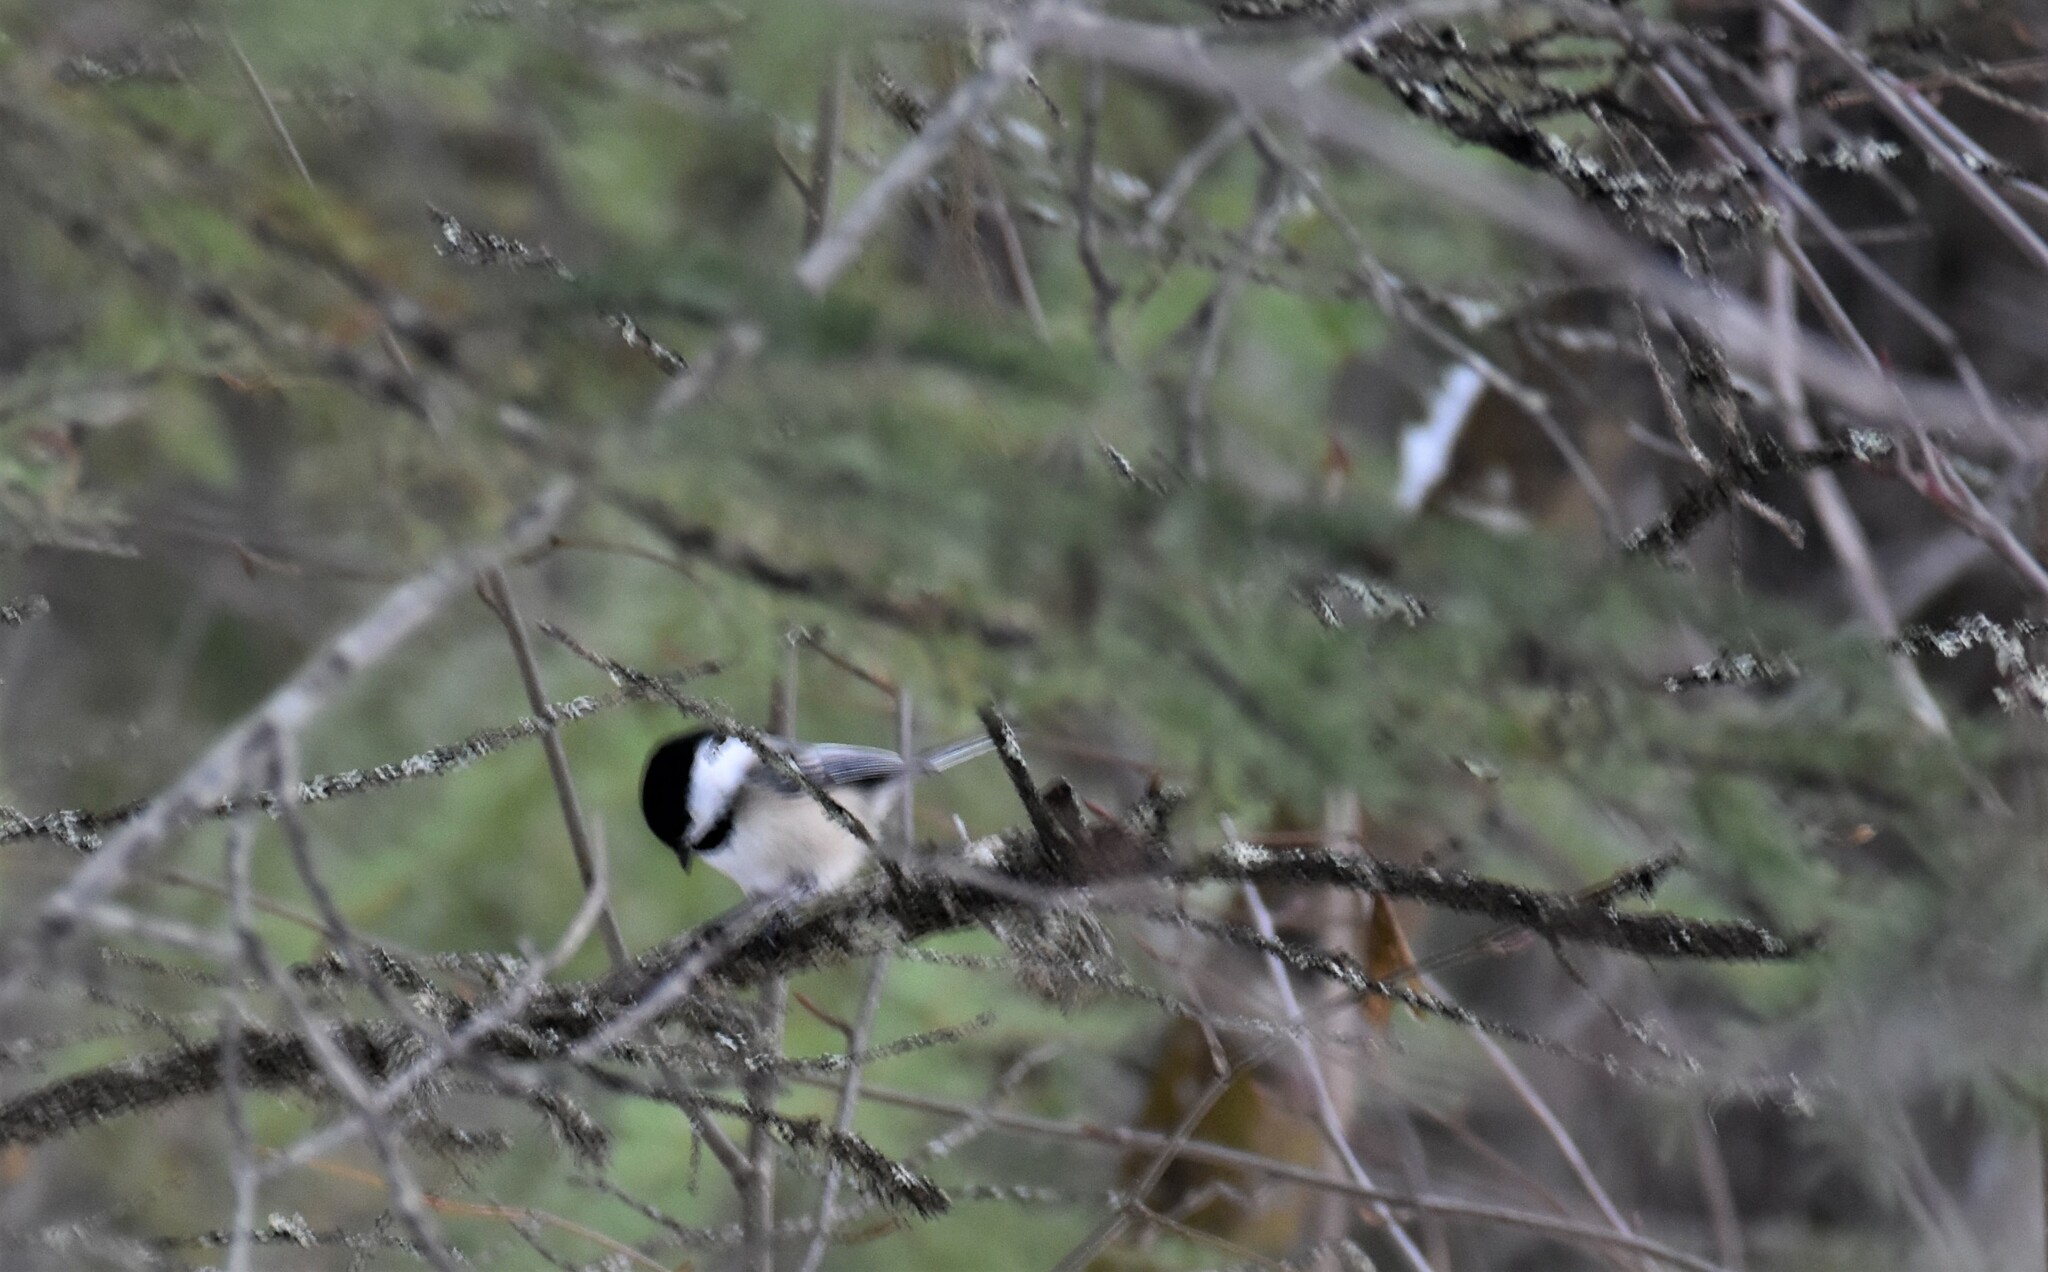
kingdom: Animalia
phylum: Chordata
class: Aves
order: Passeriformes
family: Paridae
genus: Poecile
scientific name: Poecile atricapillus
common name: Black-capped chickadee
